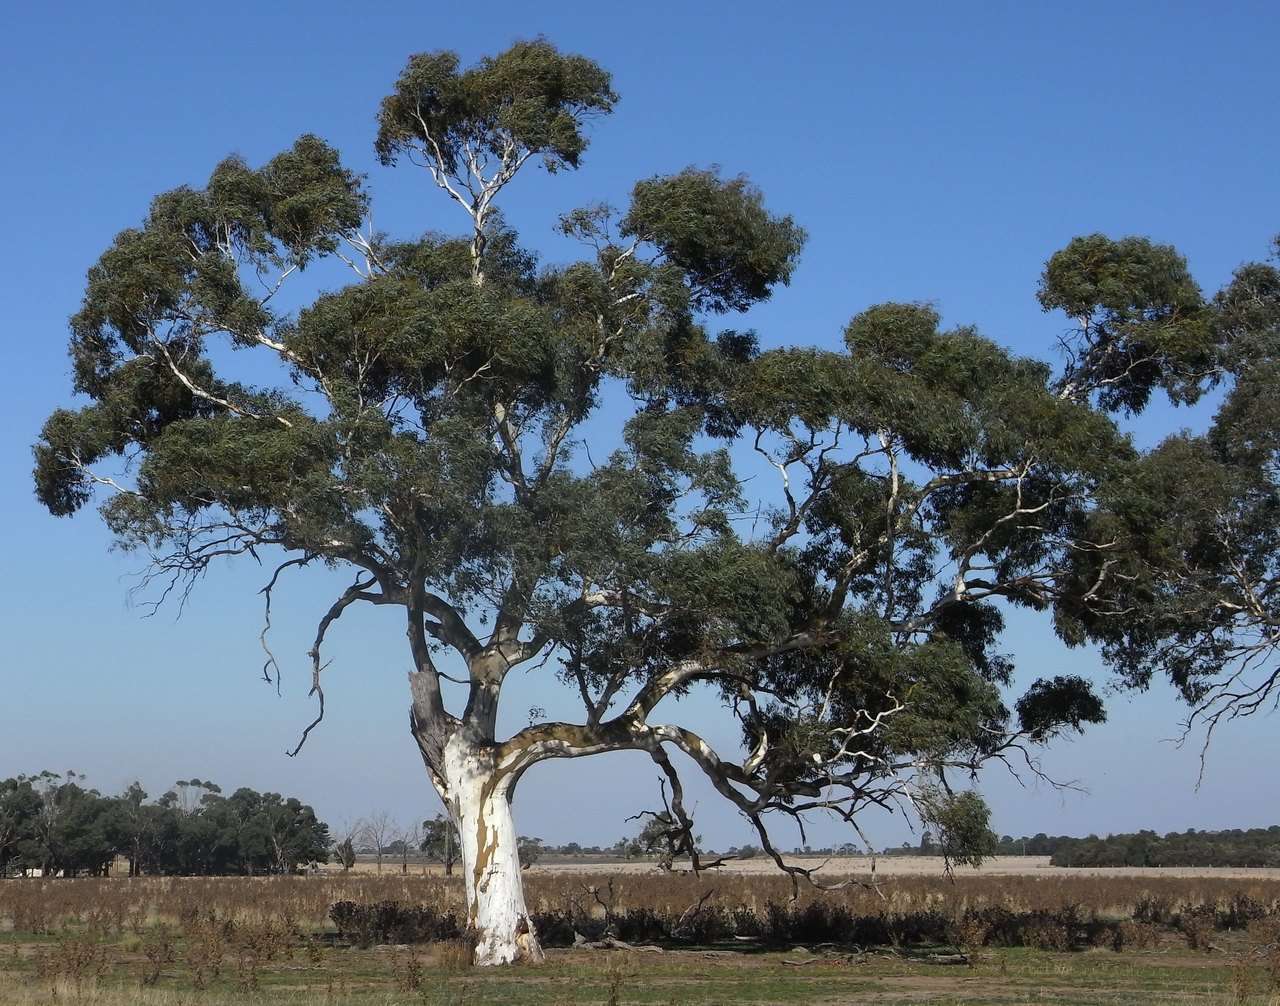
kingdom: Plantae
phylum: Tracheophyta
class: Magnoliopsida
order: Myrtales
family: Myrtaceae
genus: Eucalyptus
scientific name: Eucalyptus rubida
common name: Candlebark
